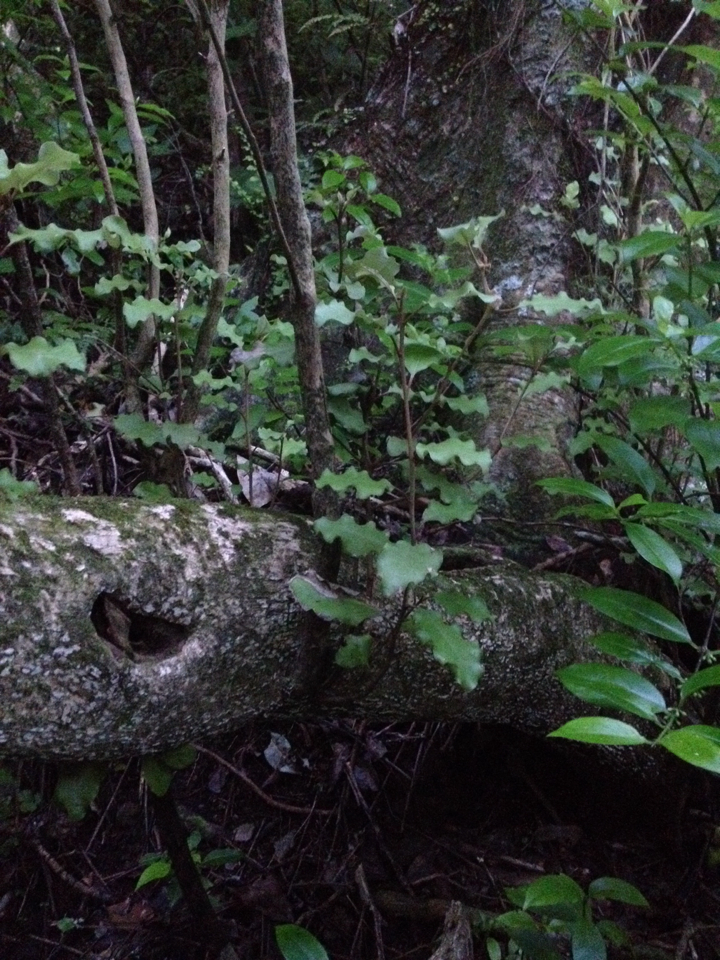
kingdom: Plantae
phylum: Tracheophyta
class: Magnoliopsida
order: Asterales
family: Asteraceae
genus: Olearia
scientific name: Olearia paniculata
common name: Akiraho
